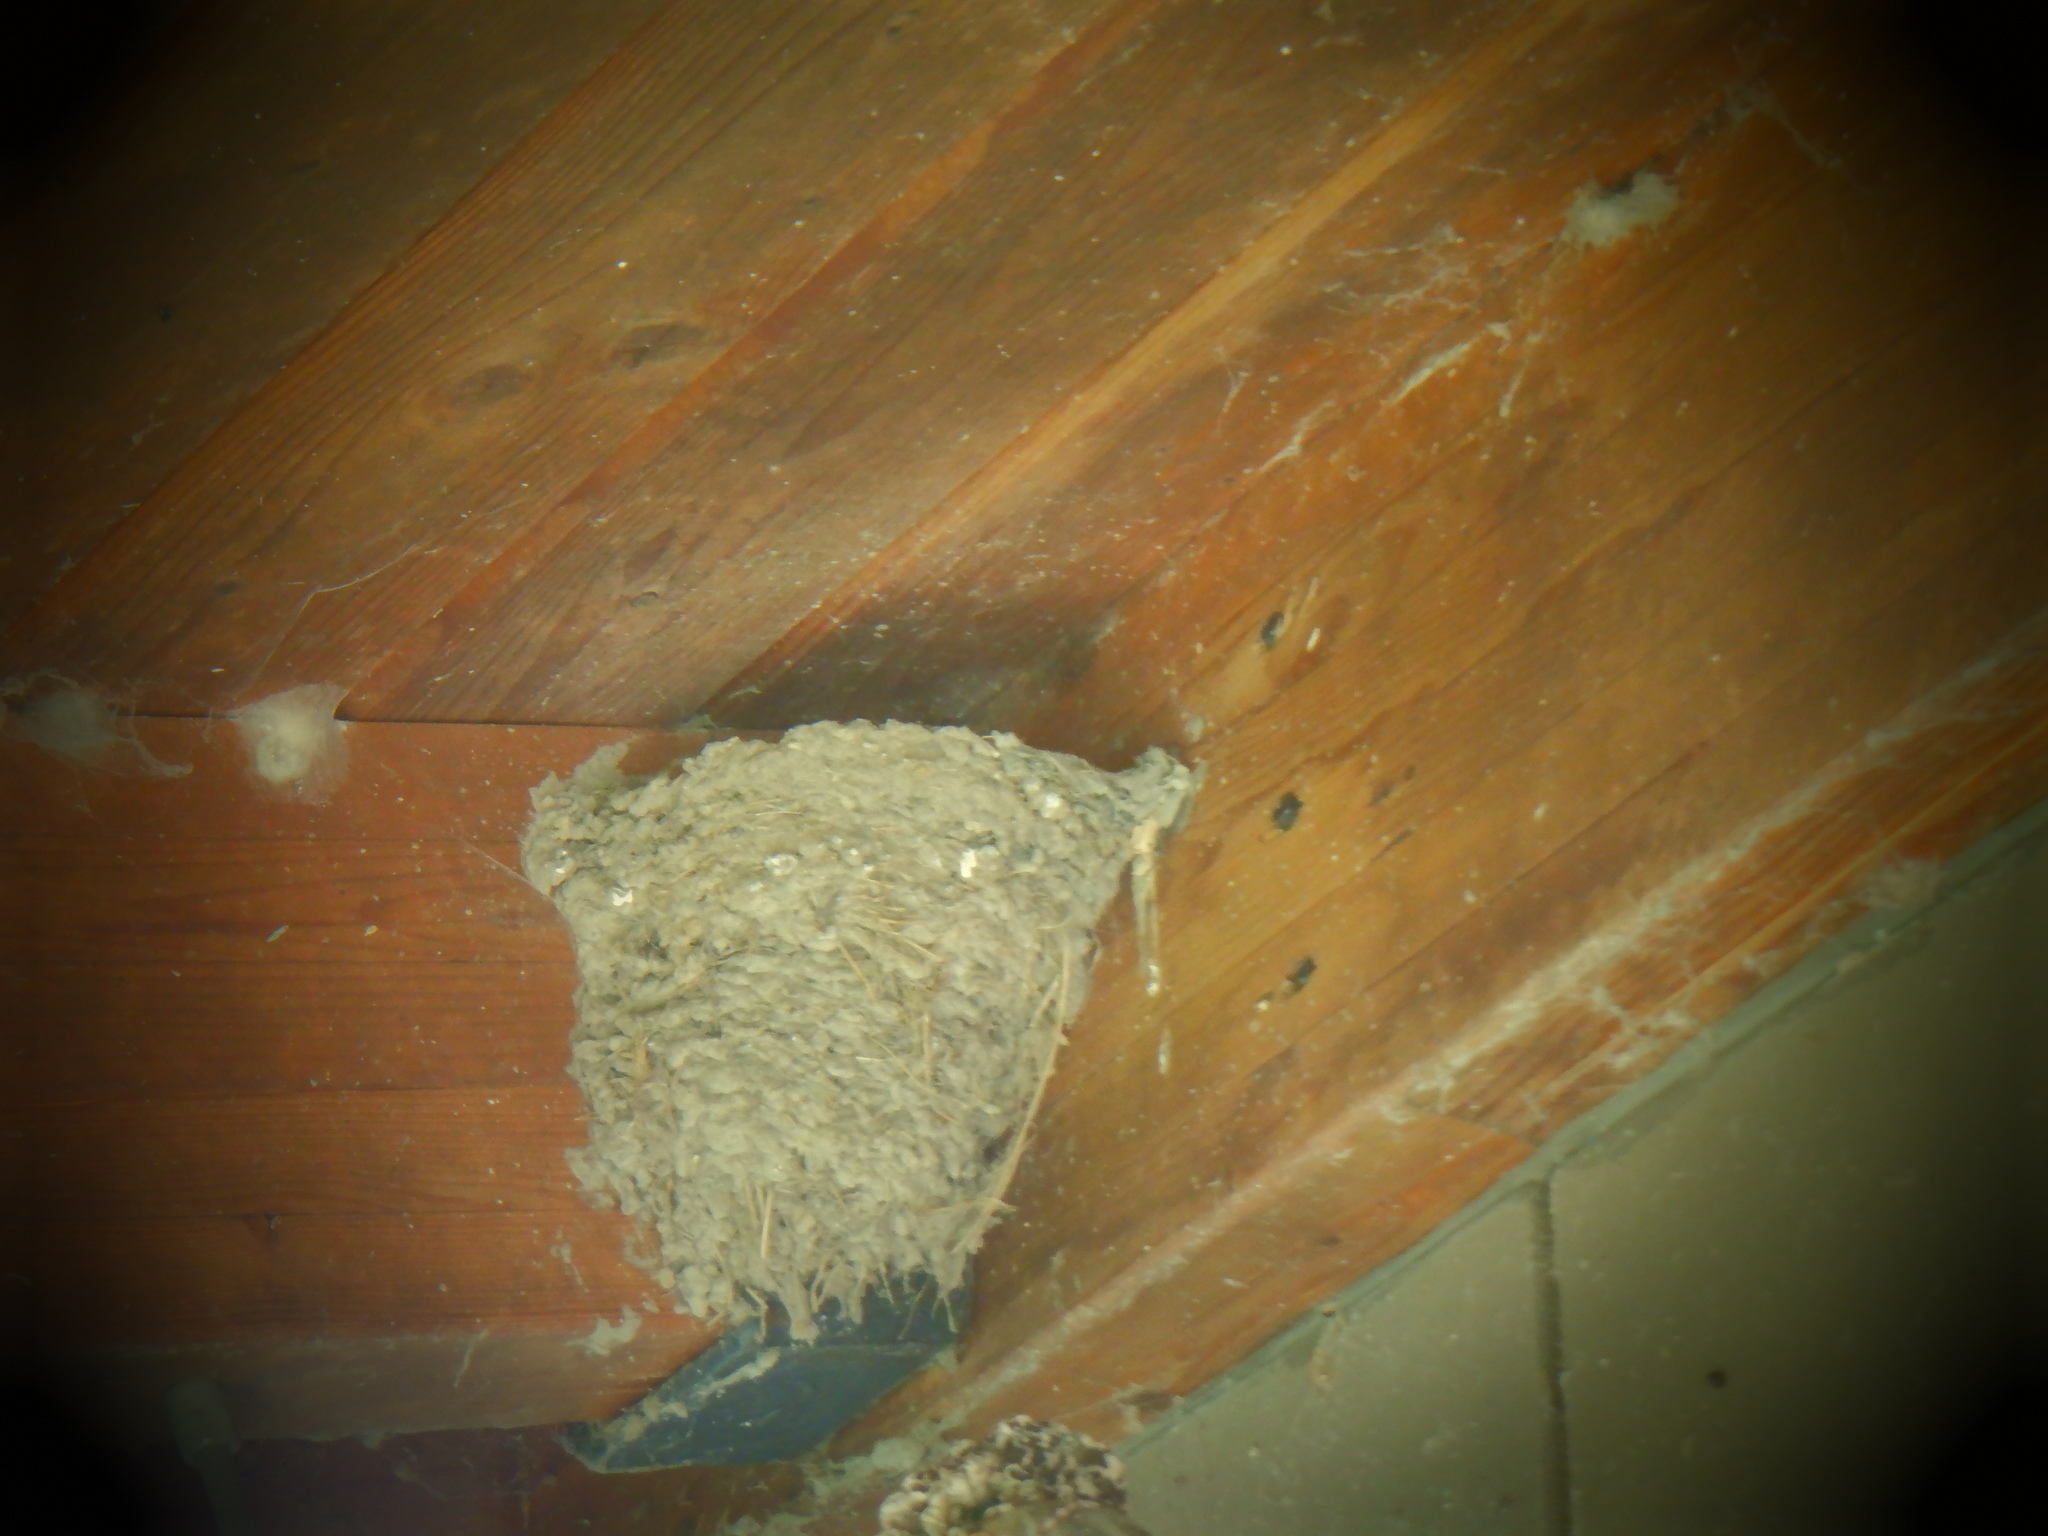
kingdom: Animalia
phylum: Chordata
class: Aves
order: Passeriformes
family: Hirundinidae
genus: Hirundo
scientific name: Hirundo rustica
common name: Barn swallow
